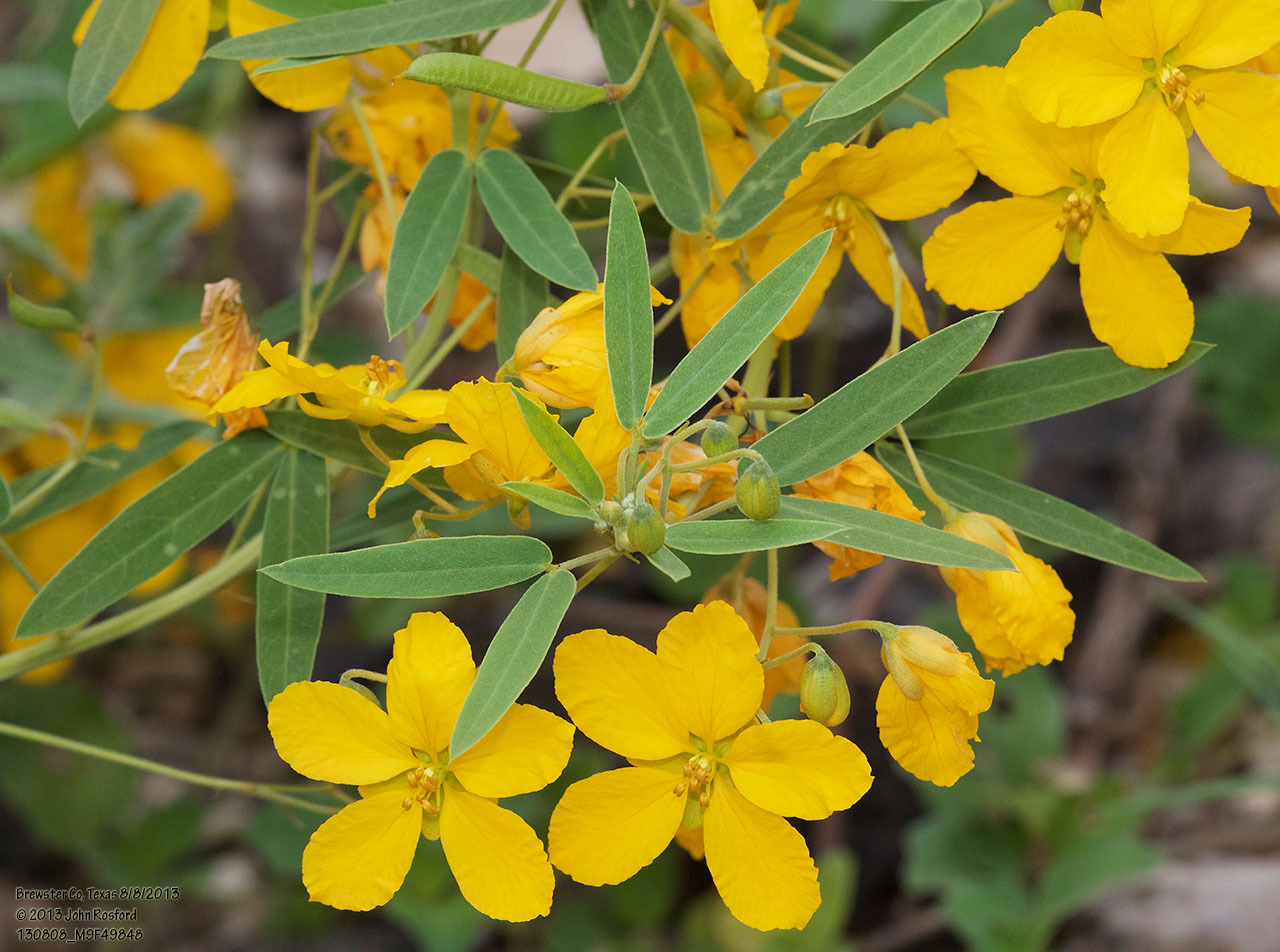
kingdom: Plantae
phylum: Tracheophyta
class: Magnoliopsida
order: Fabales
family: Fabaceae
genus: Senna
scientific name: Senna roemeriana
